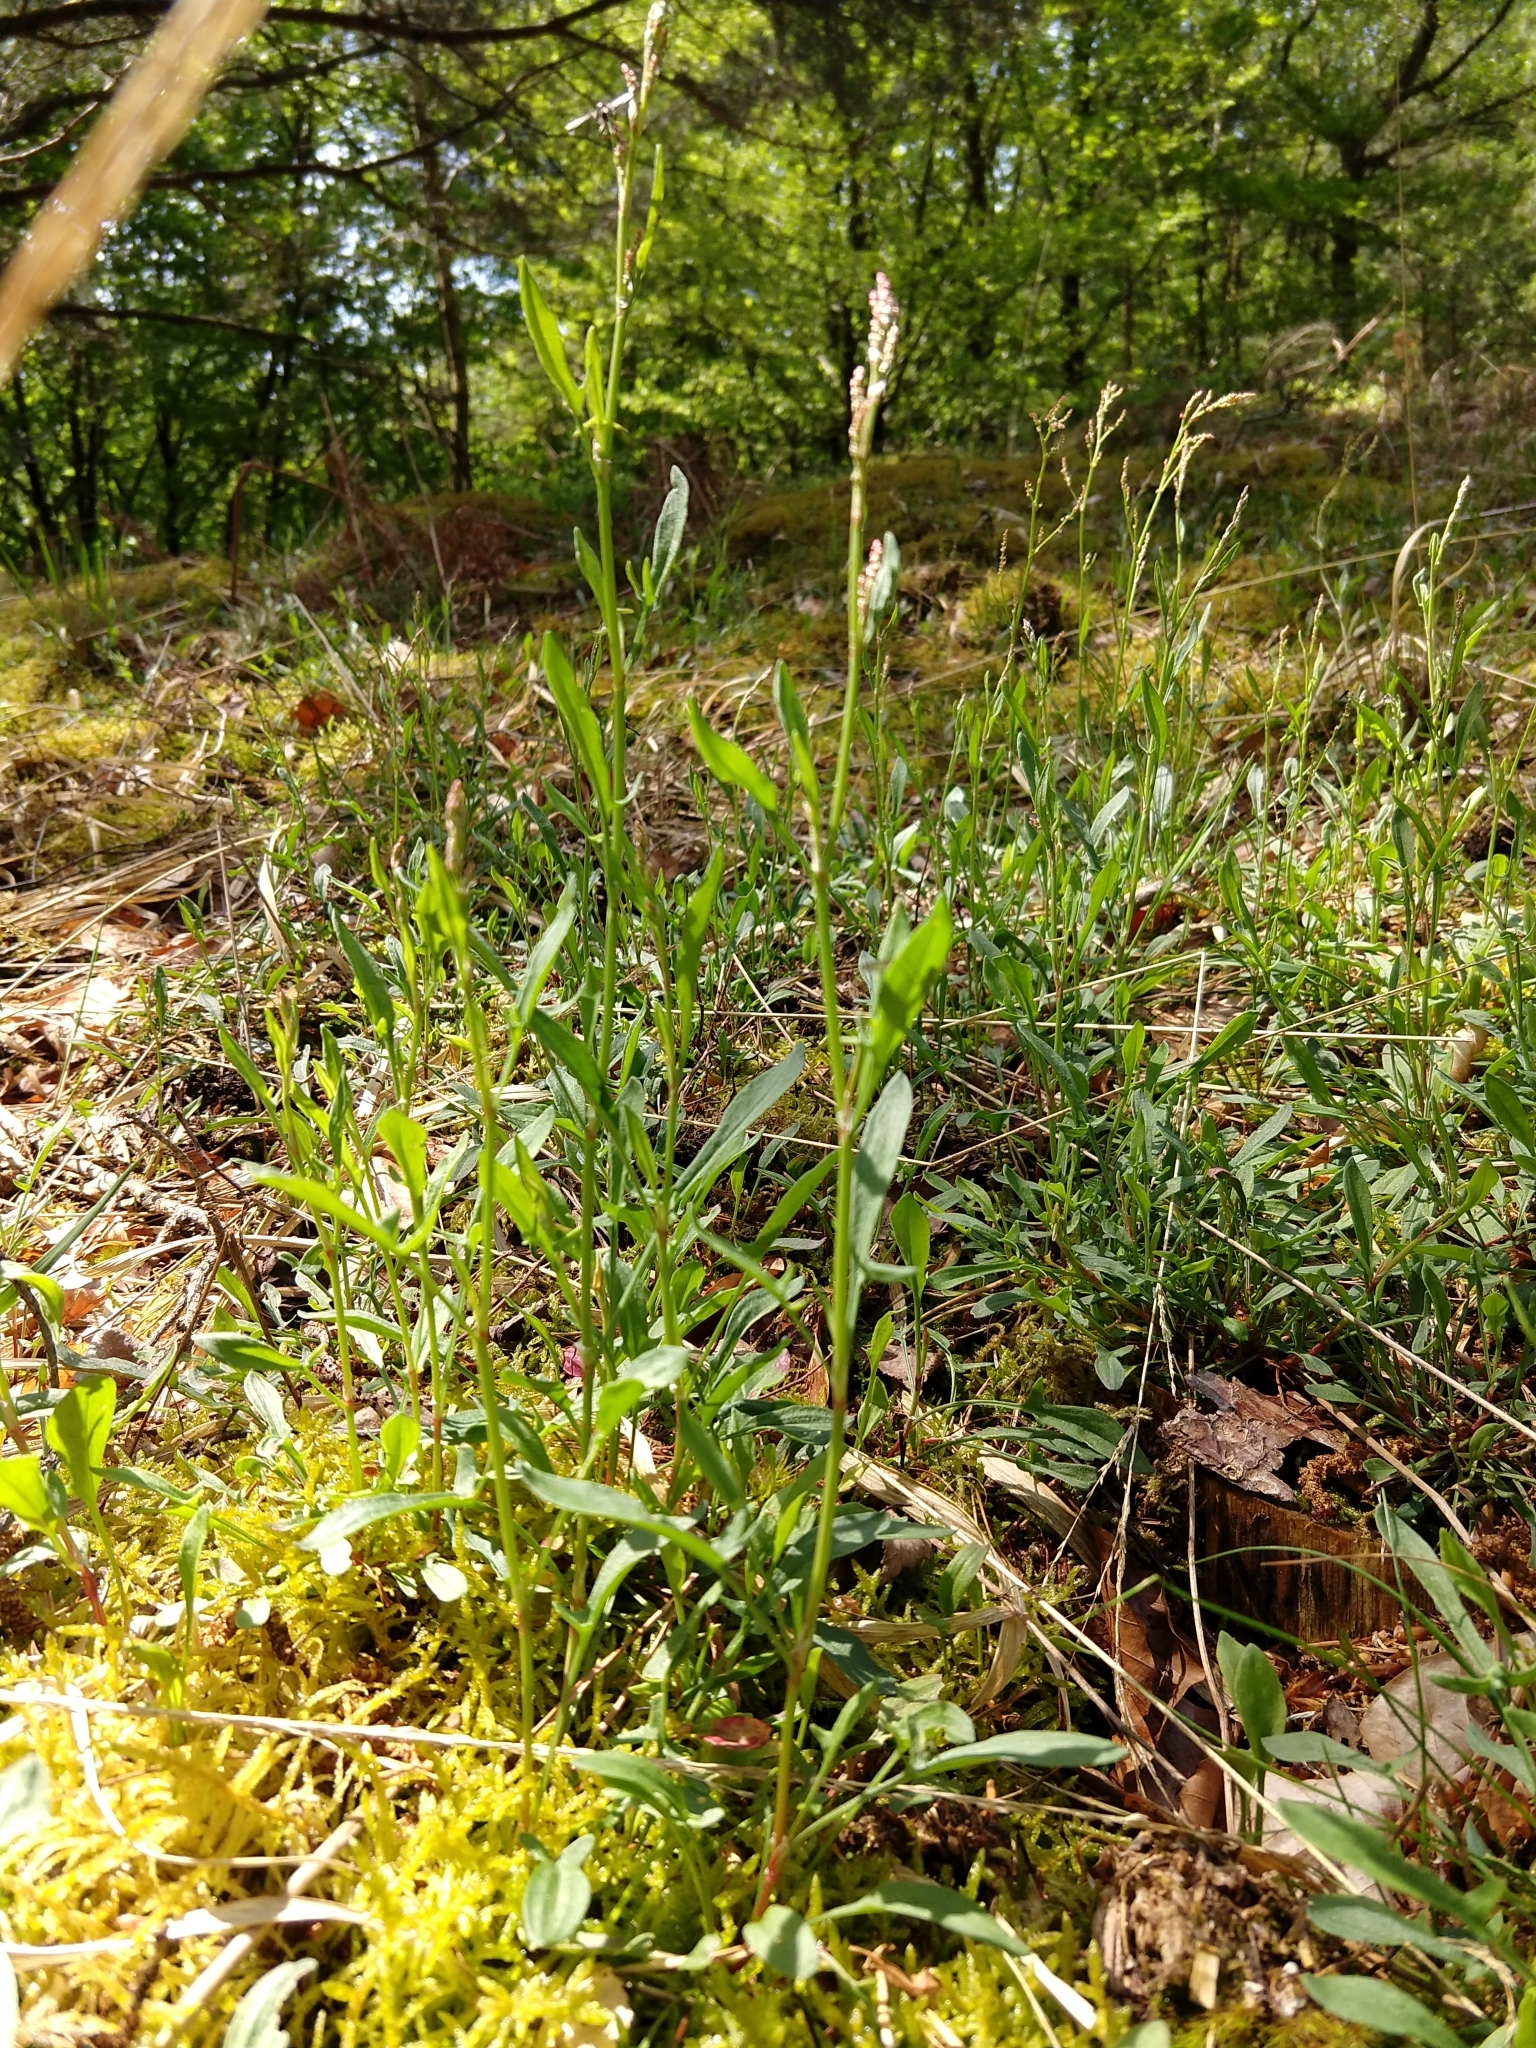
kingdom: Plantae
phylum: Tracheophyta
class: Magnoliopsida
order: Caryophyllales
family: Polygonaceae
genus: Rumex
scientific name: Rumex acetosella
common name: Common sheep sorrel
